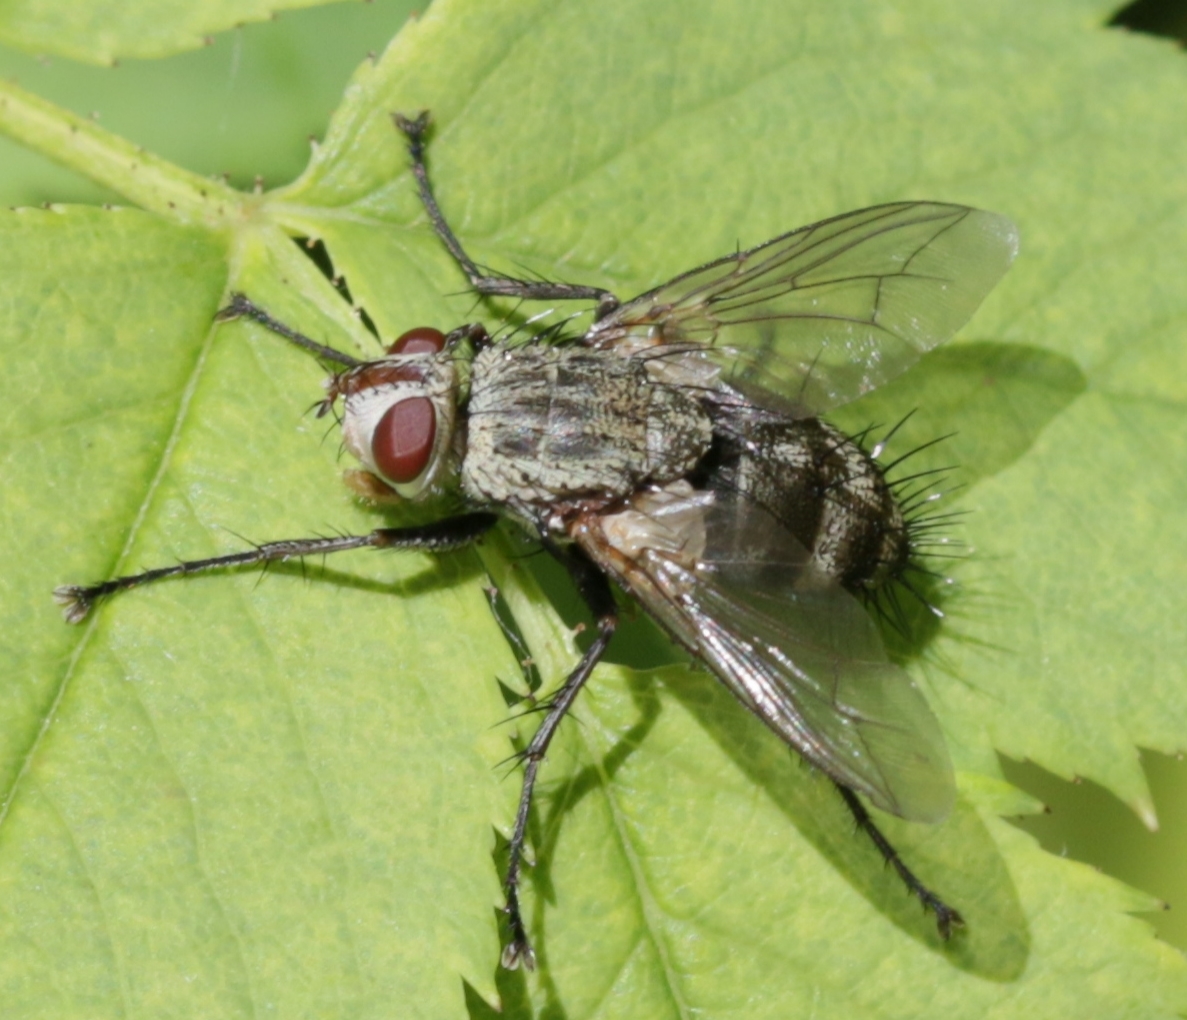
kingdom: Animalia
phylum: Arthropoda
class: Insecta
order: Diptera
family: Tachinidae
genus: Microphthalma
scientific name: Microphthalma europaea
